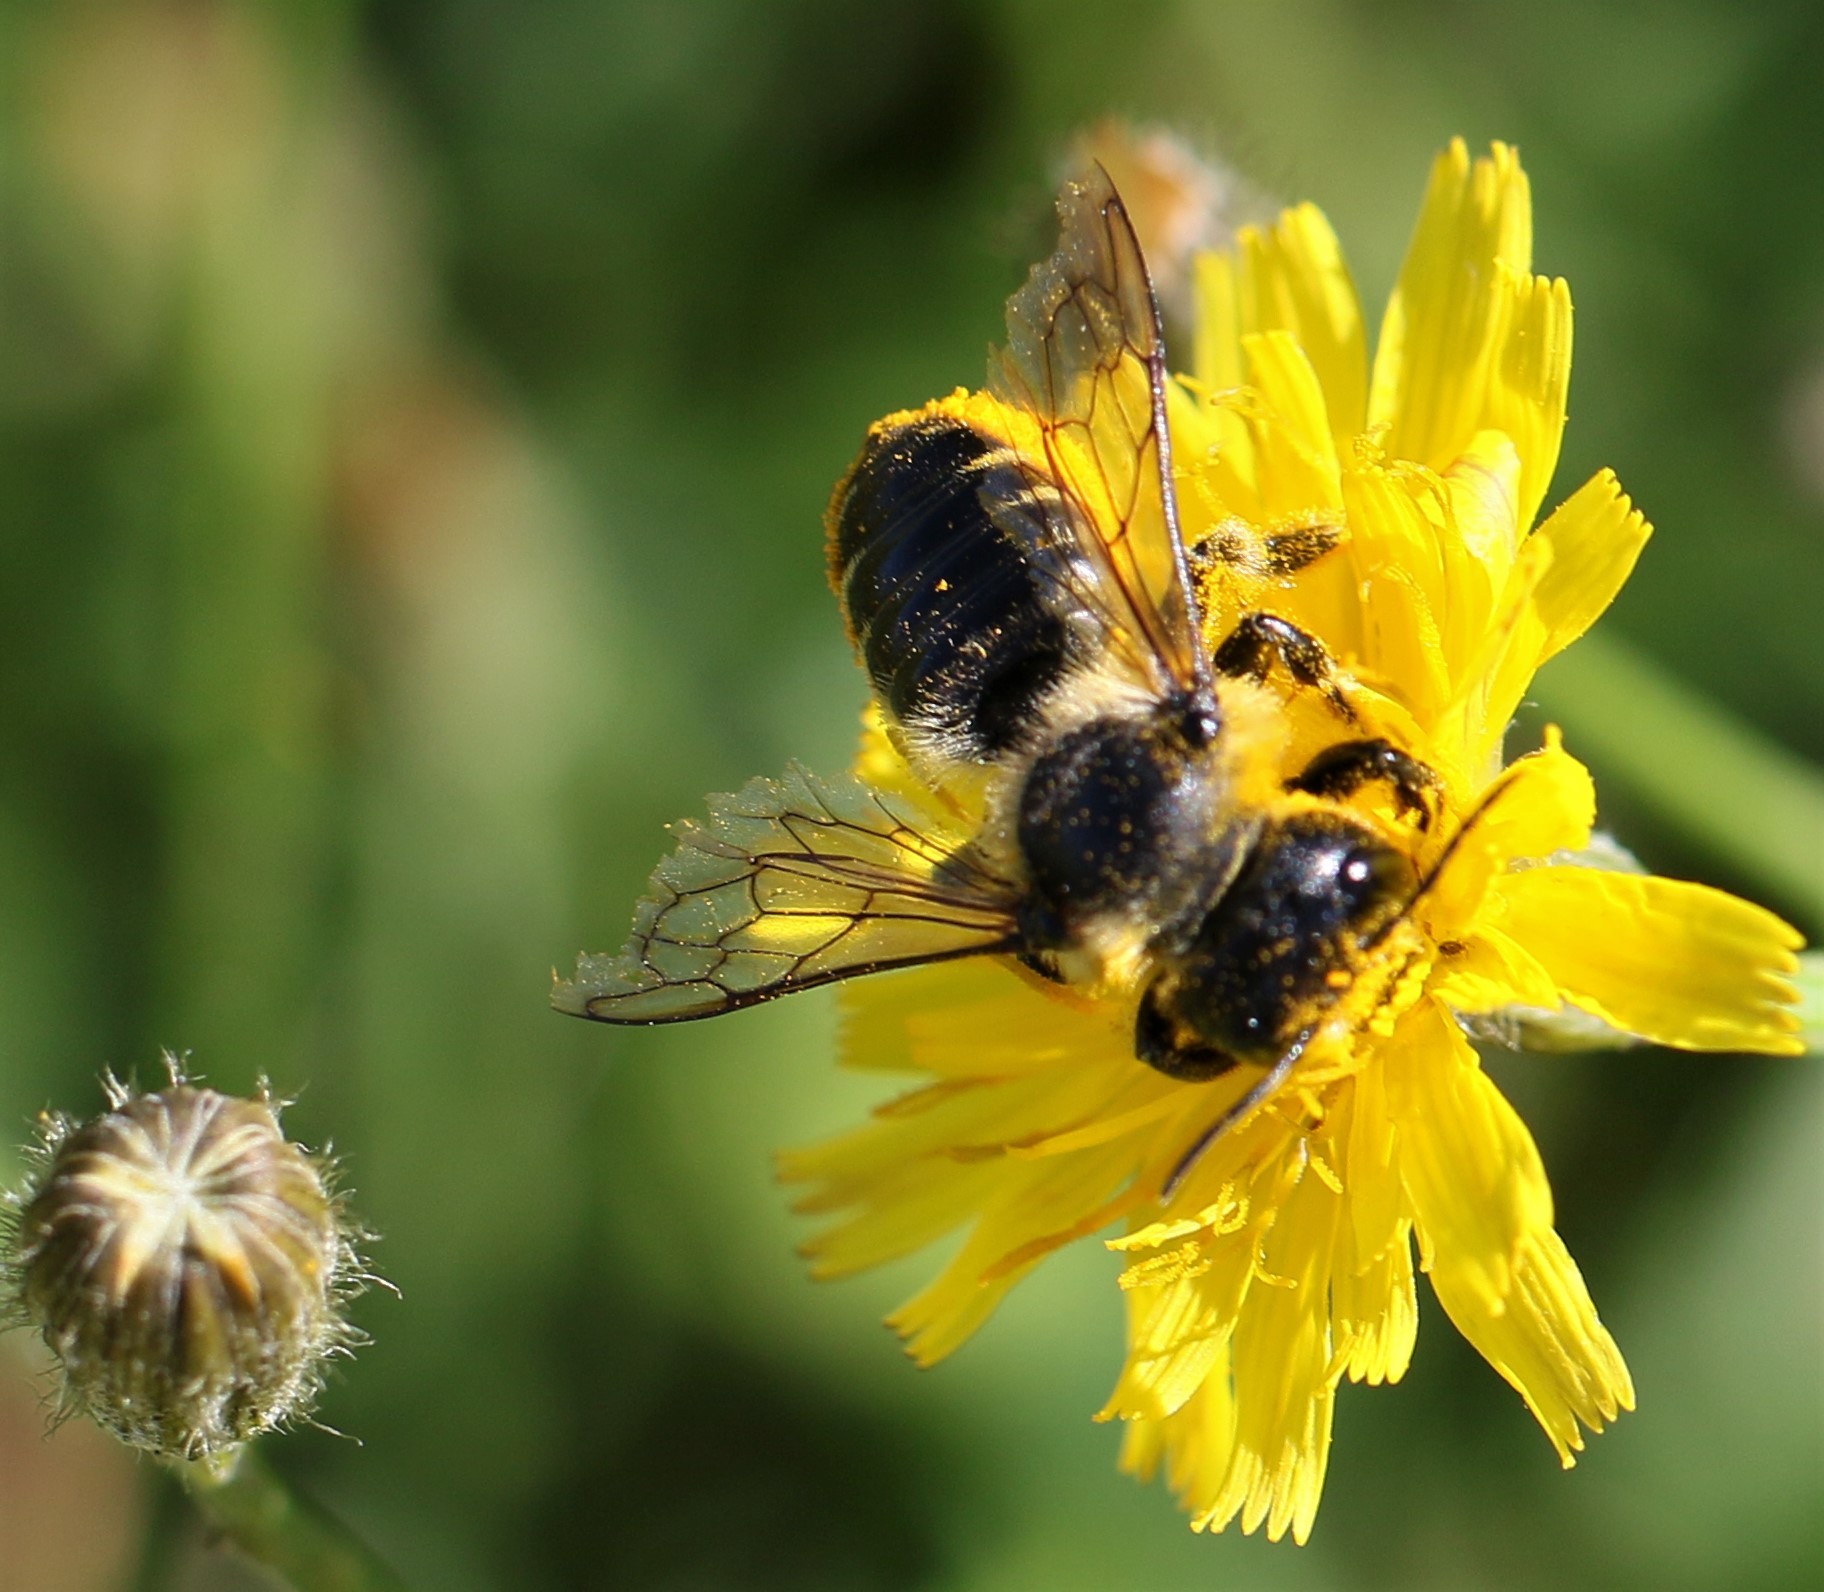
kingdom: Animalia
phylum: Arthropoda
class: Insecta
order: Hymenoptera
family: Megachilidae
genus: Megachile
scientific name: Megachile inermis
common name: Unarmed leafcutter bee
